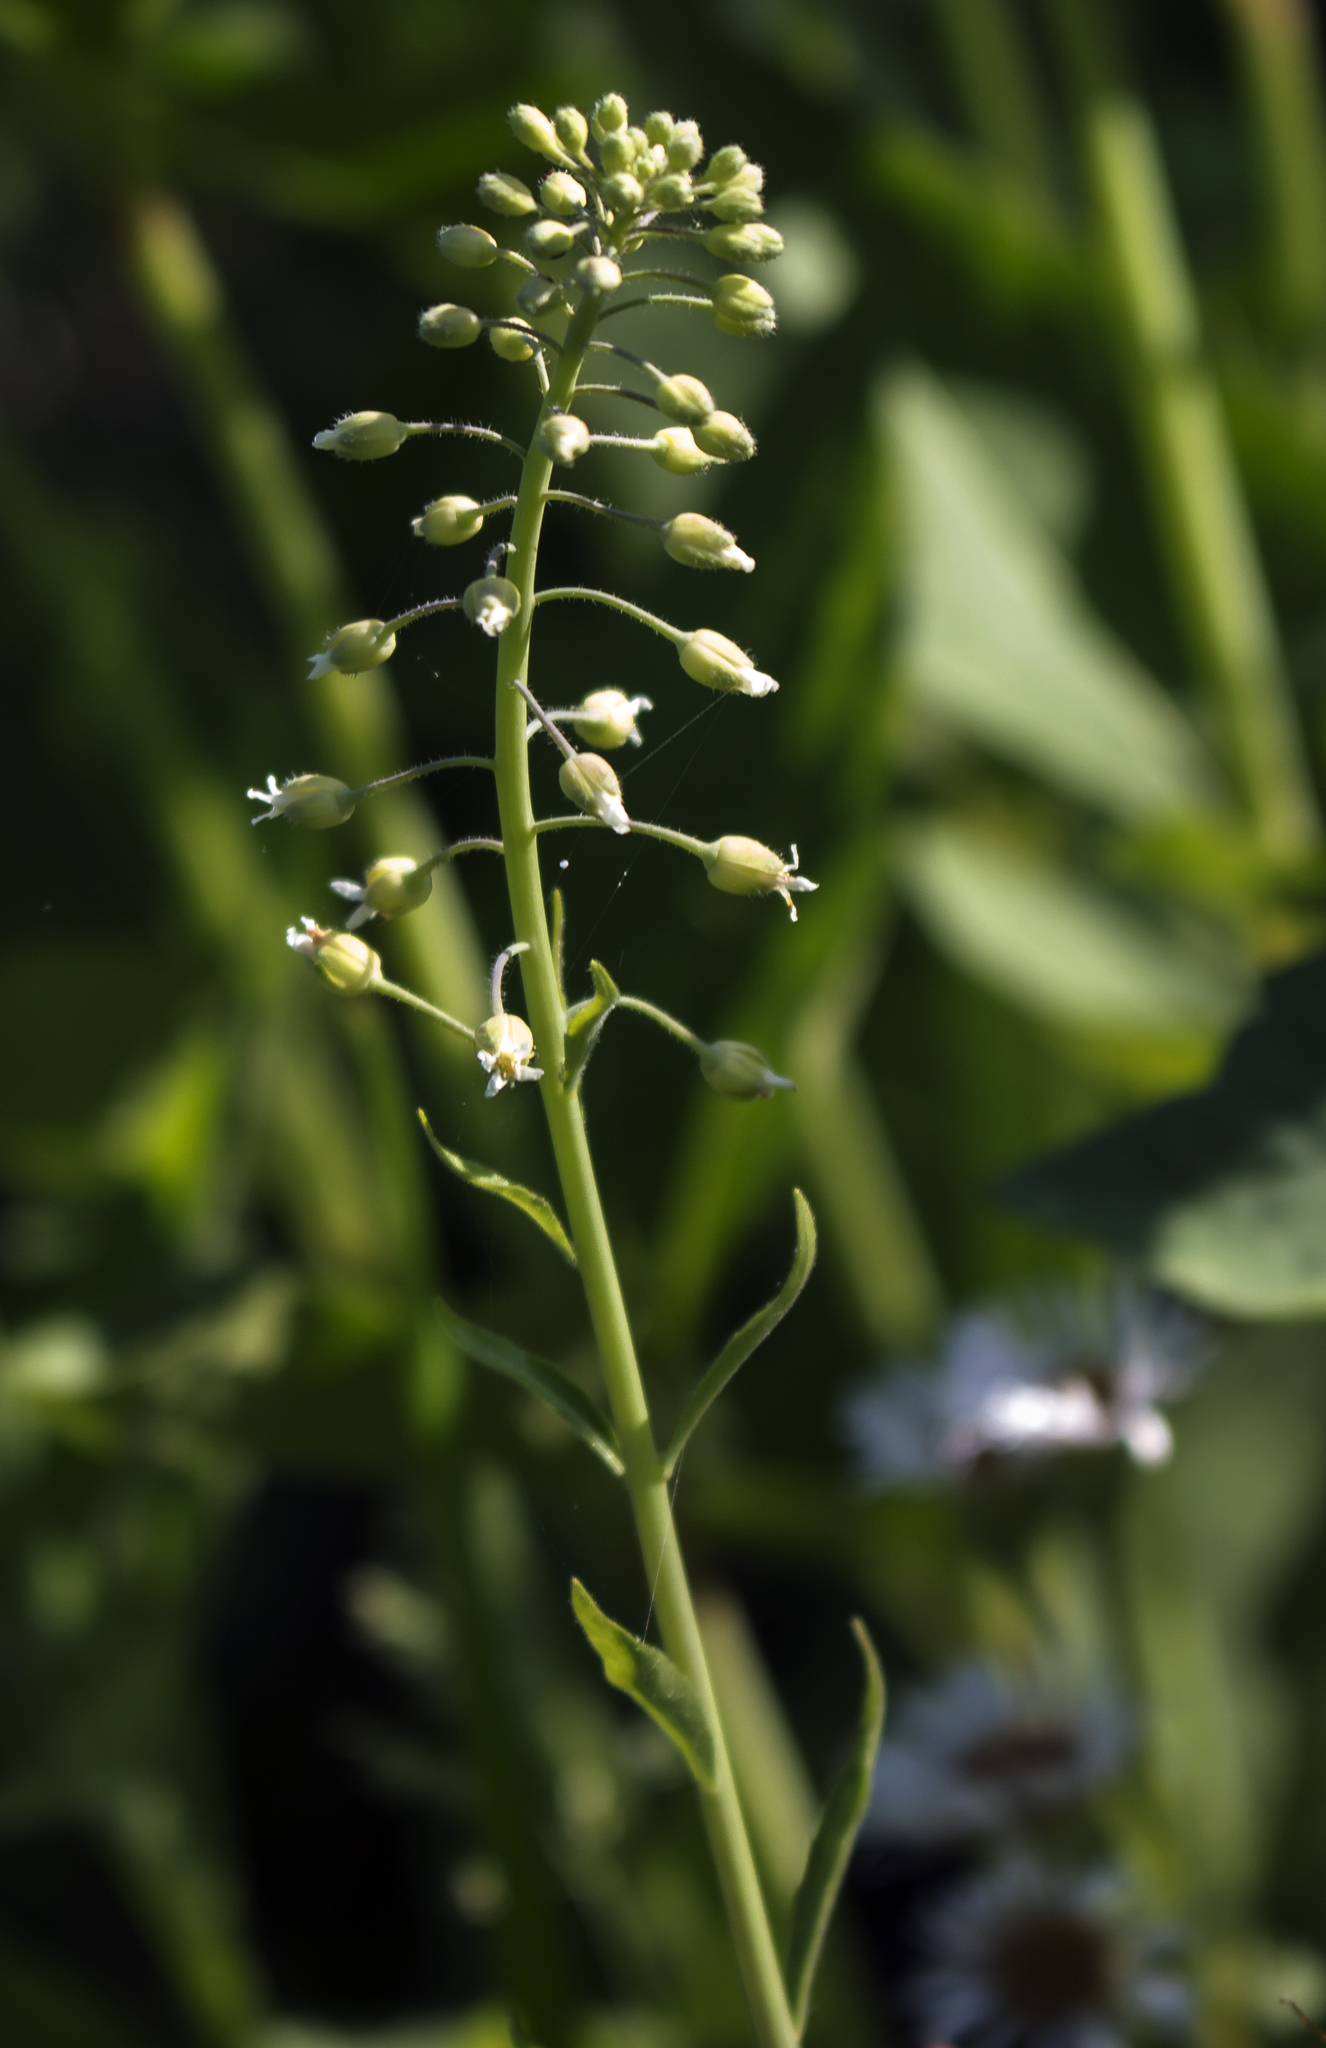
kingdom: Plantae
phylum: Tracheophyta
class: Magnoliopsida
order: Brassicales
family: Brassicaceae
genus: Borodinia
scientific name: Borodinia canadensis
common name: Sicklepod
